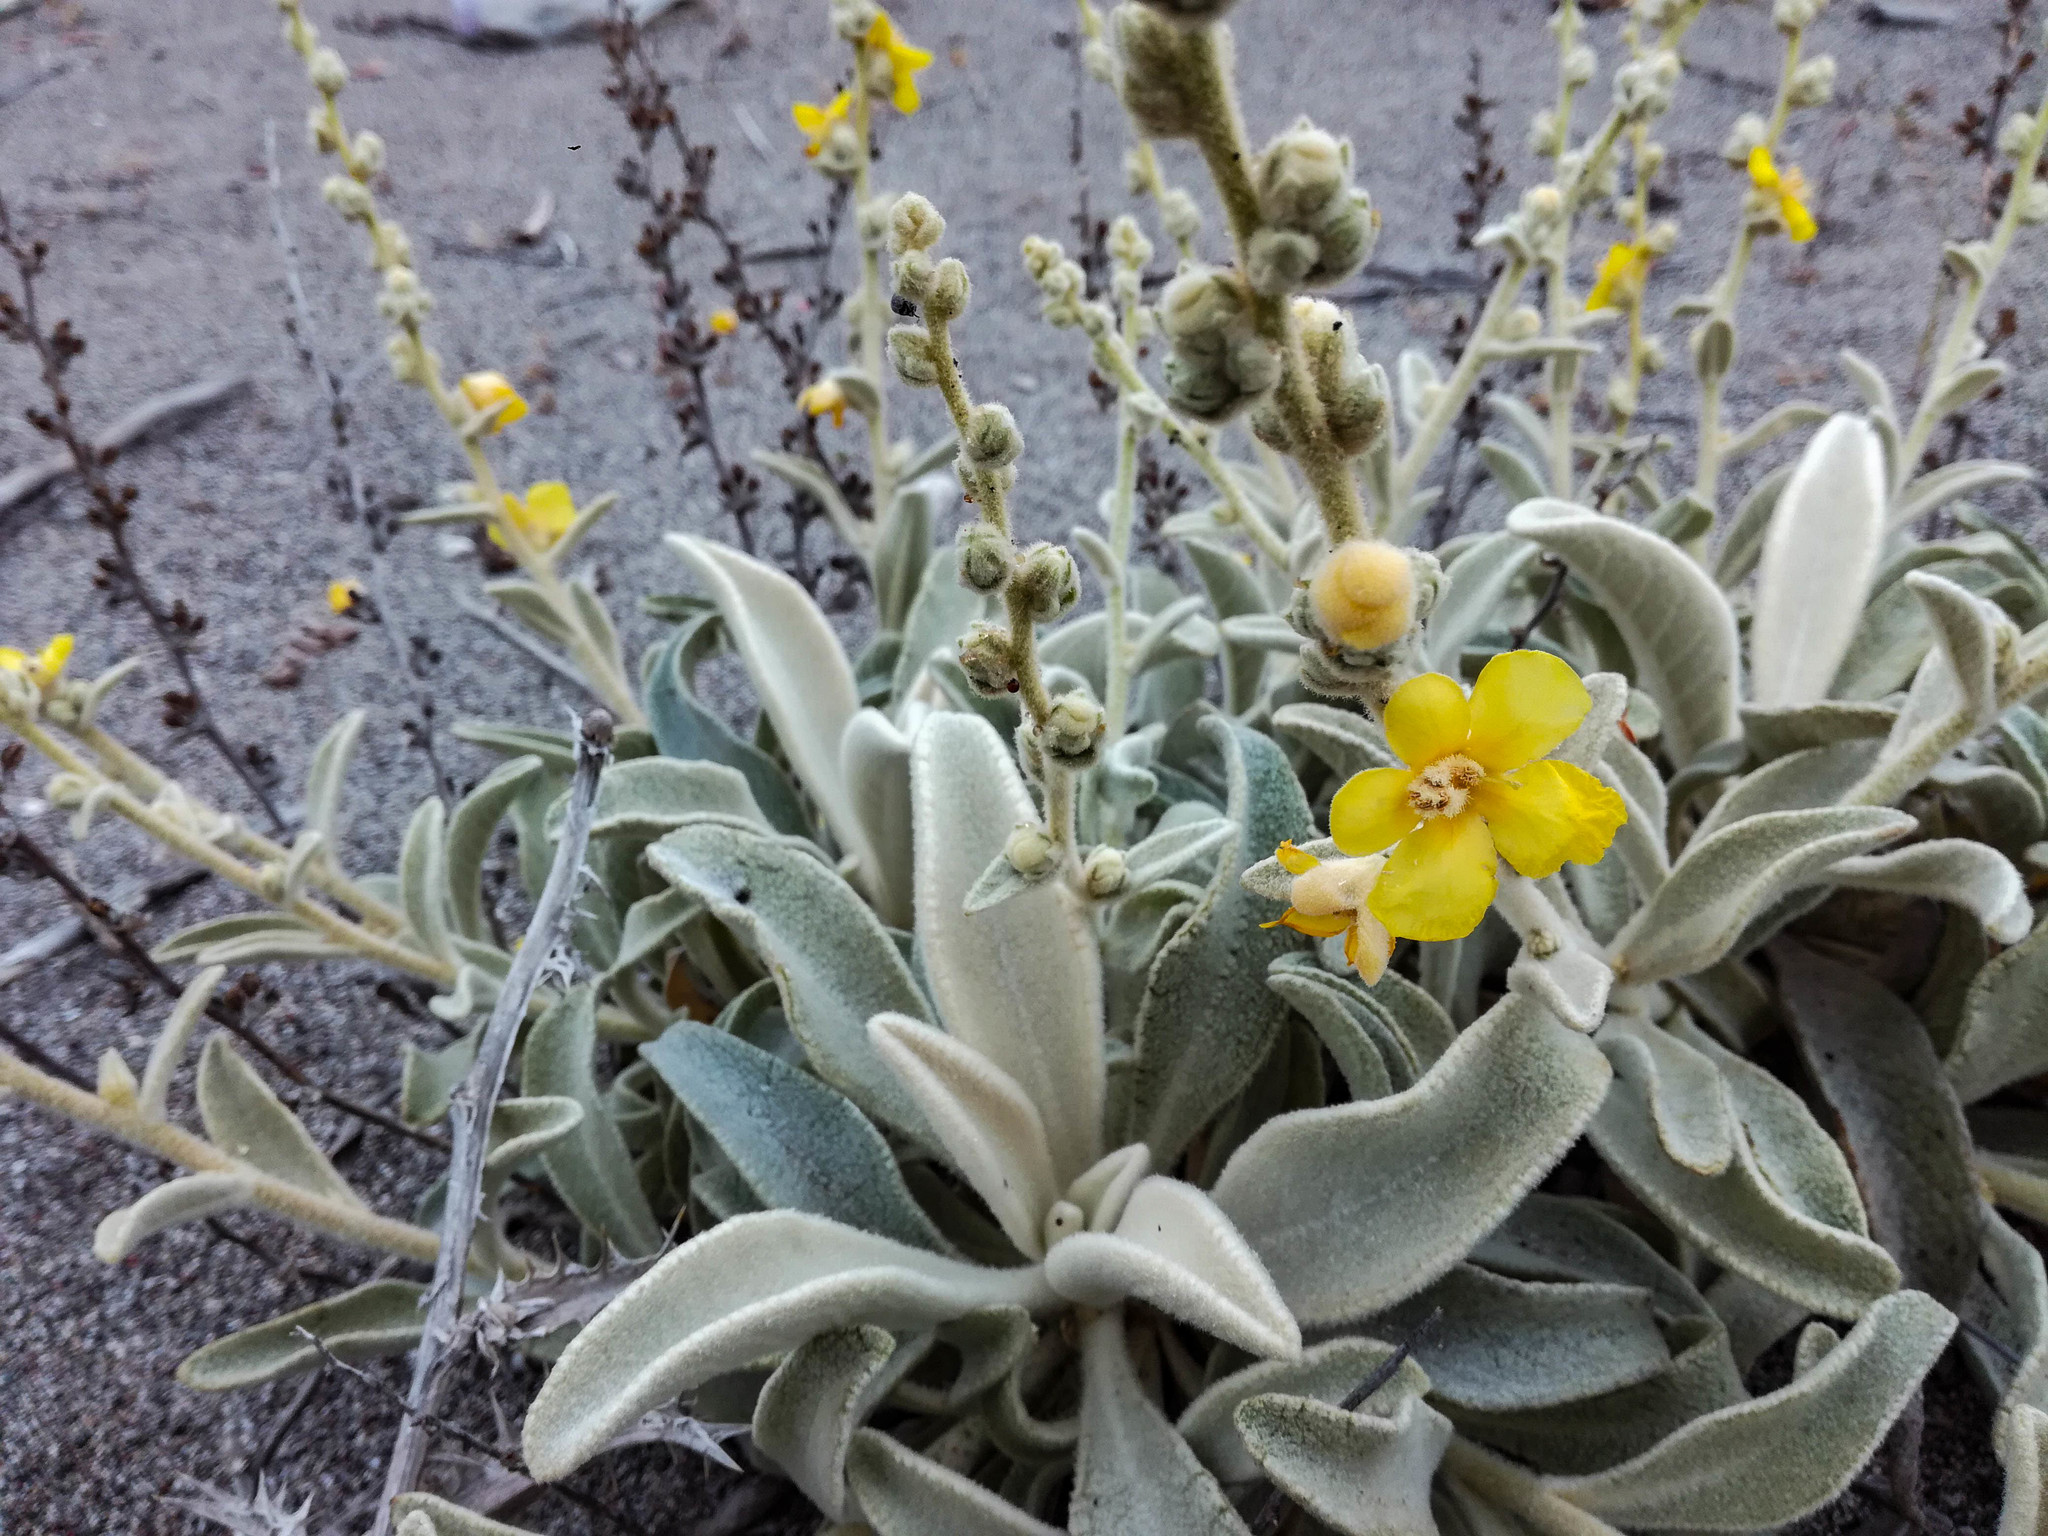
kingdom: Plantae
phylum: Tracheophyta
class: Magnoliopsida
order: Lamiales
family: Scrophulariaceae
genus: Verbascum
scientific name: Verbascum syriacum
